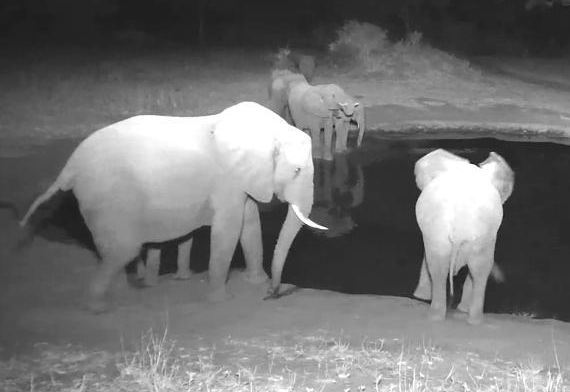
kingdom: Animalia
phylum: Chordata
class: Mammalia
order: Proboscidea
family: Elephantidae
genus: Loxodonta
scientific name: Loxodonta africana
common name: African elephant
